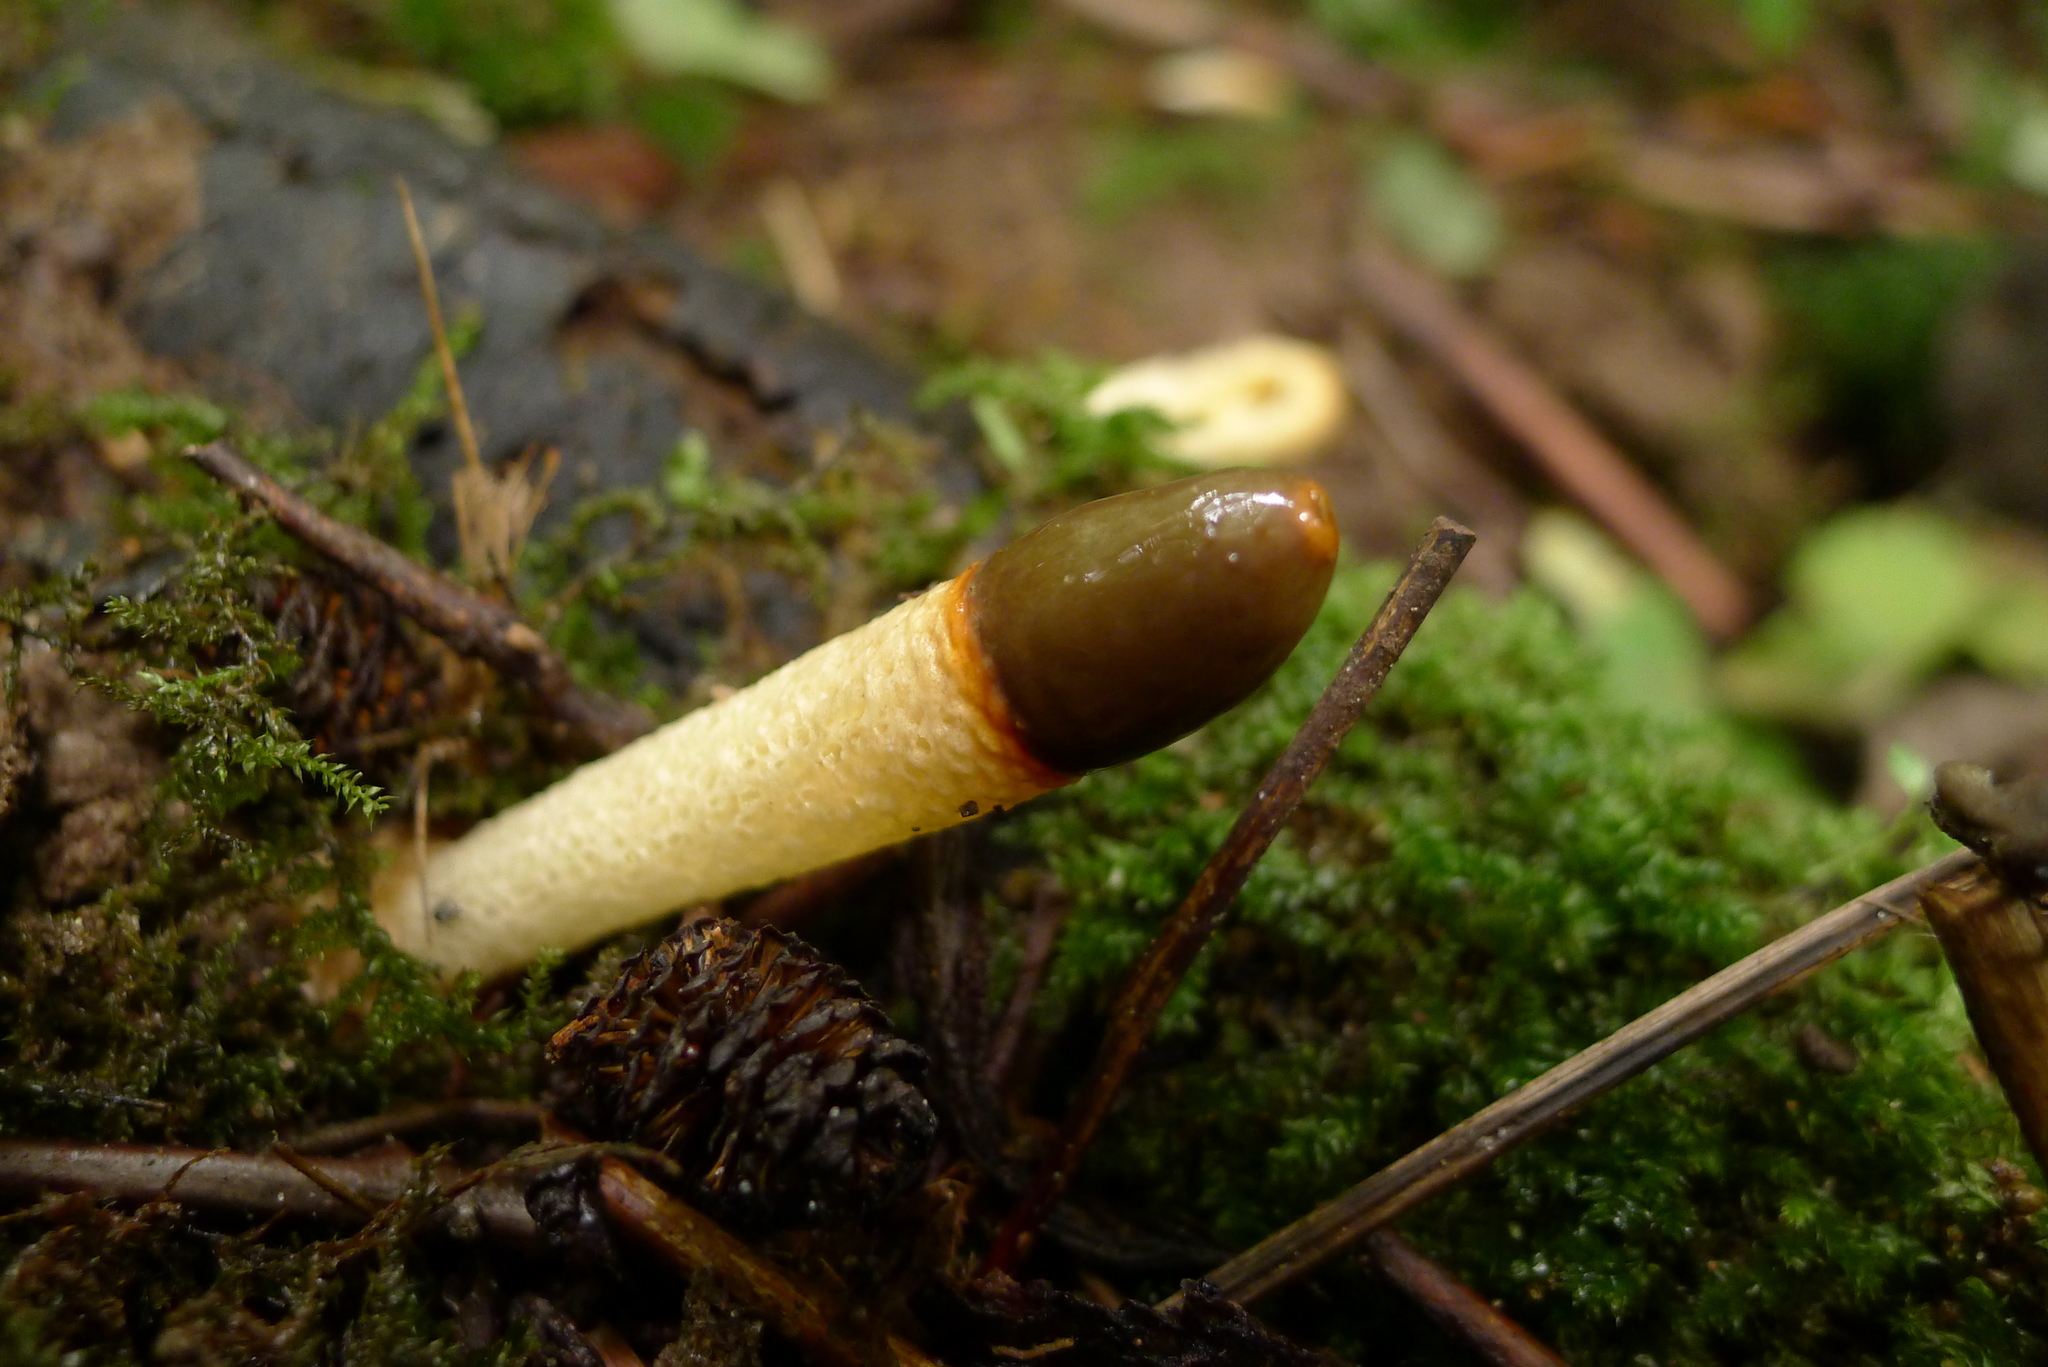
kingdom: Fungi
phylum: Basidiomycota
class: Agaricomycetes
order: Phallales
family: Phallaceae
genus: Mutinus
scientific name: Mutinus caninus
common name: Dog stinkhorn
